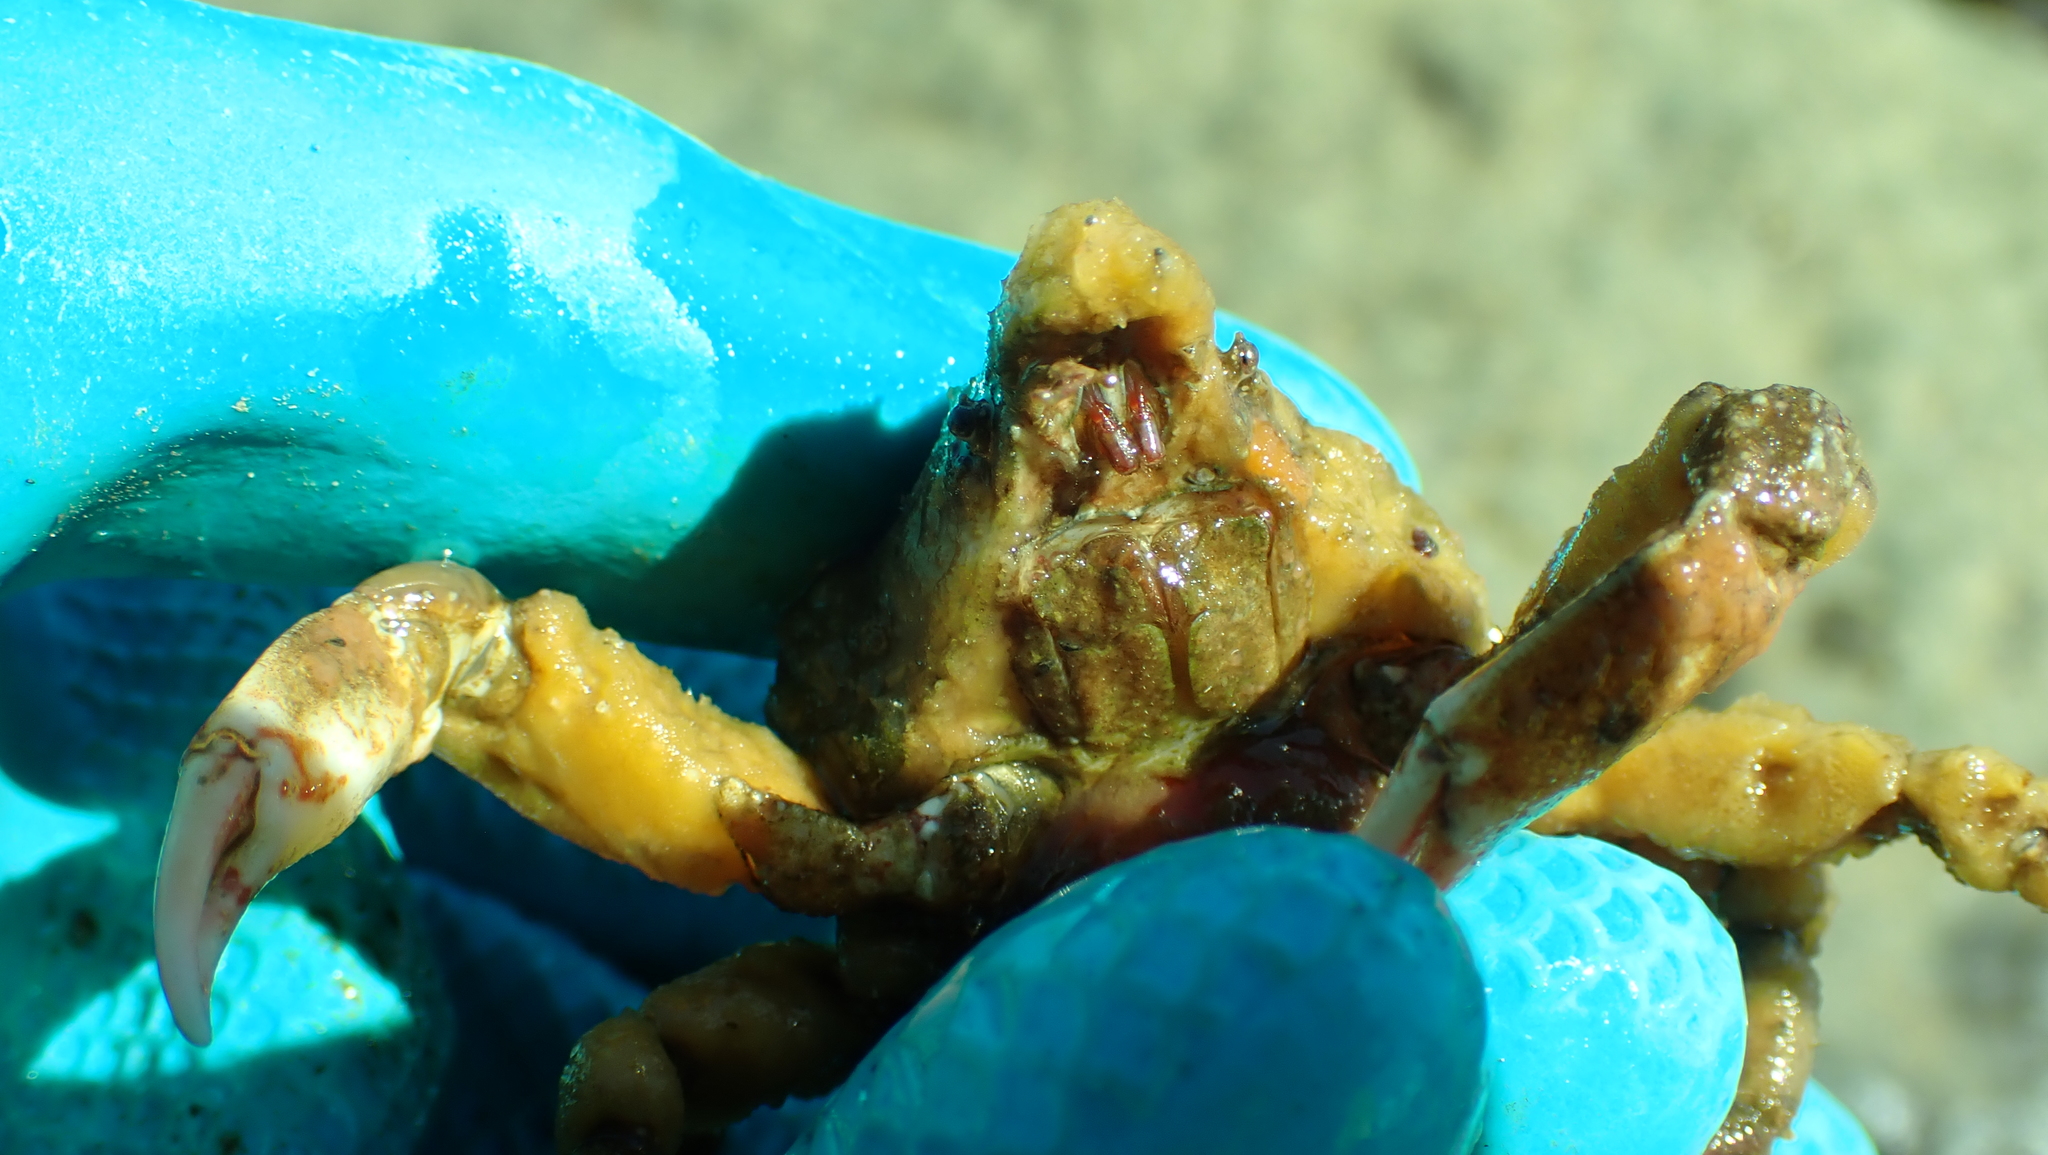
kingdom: Animalia
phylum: Arthropoda
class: Malacostraca
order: Decapoda
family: Epialtidae
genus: Scyra
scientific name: Scyra acutifrons
